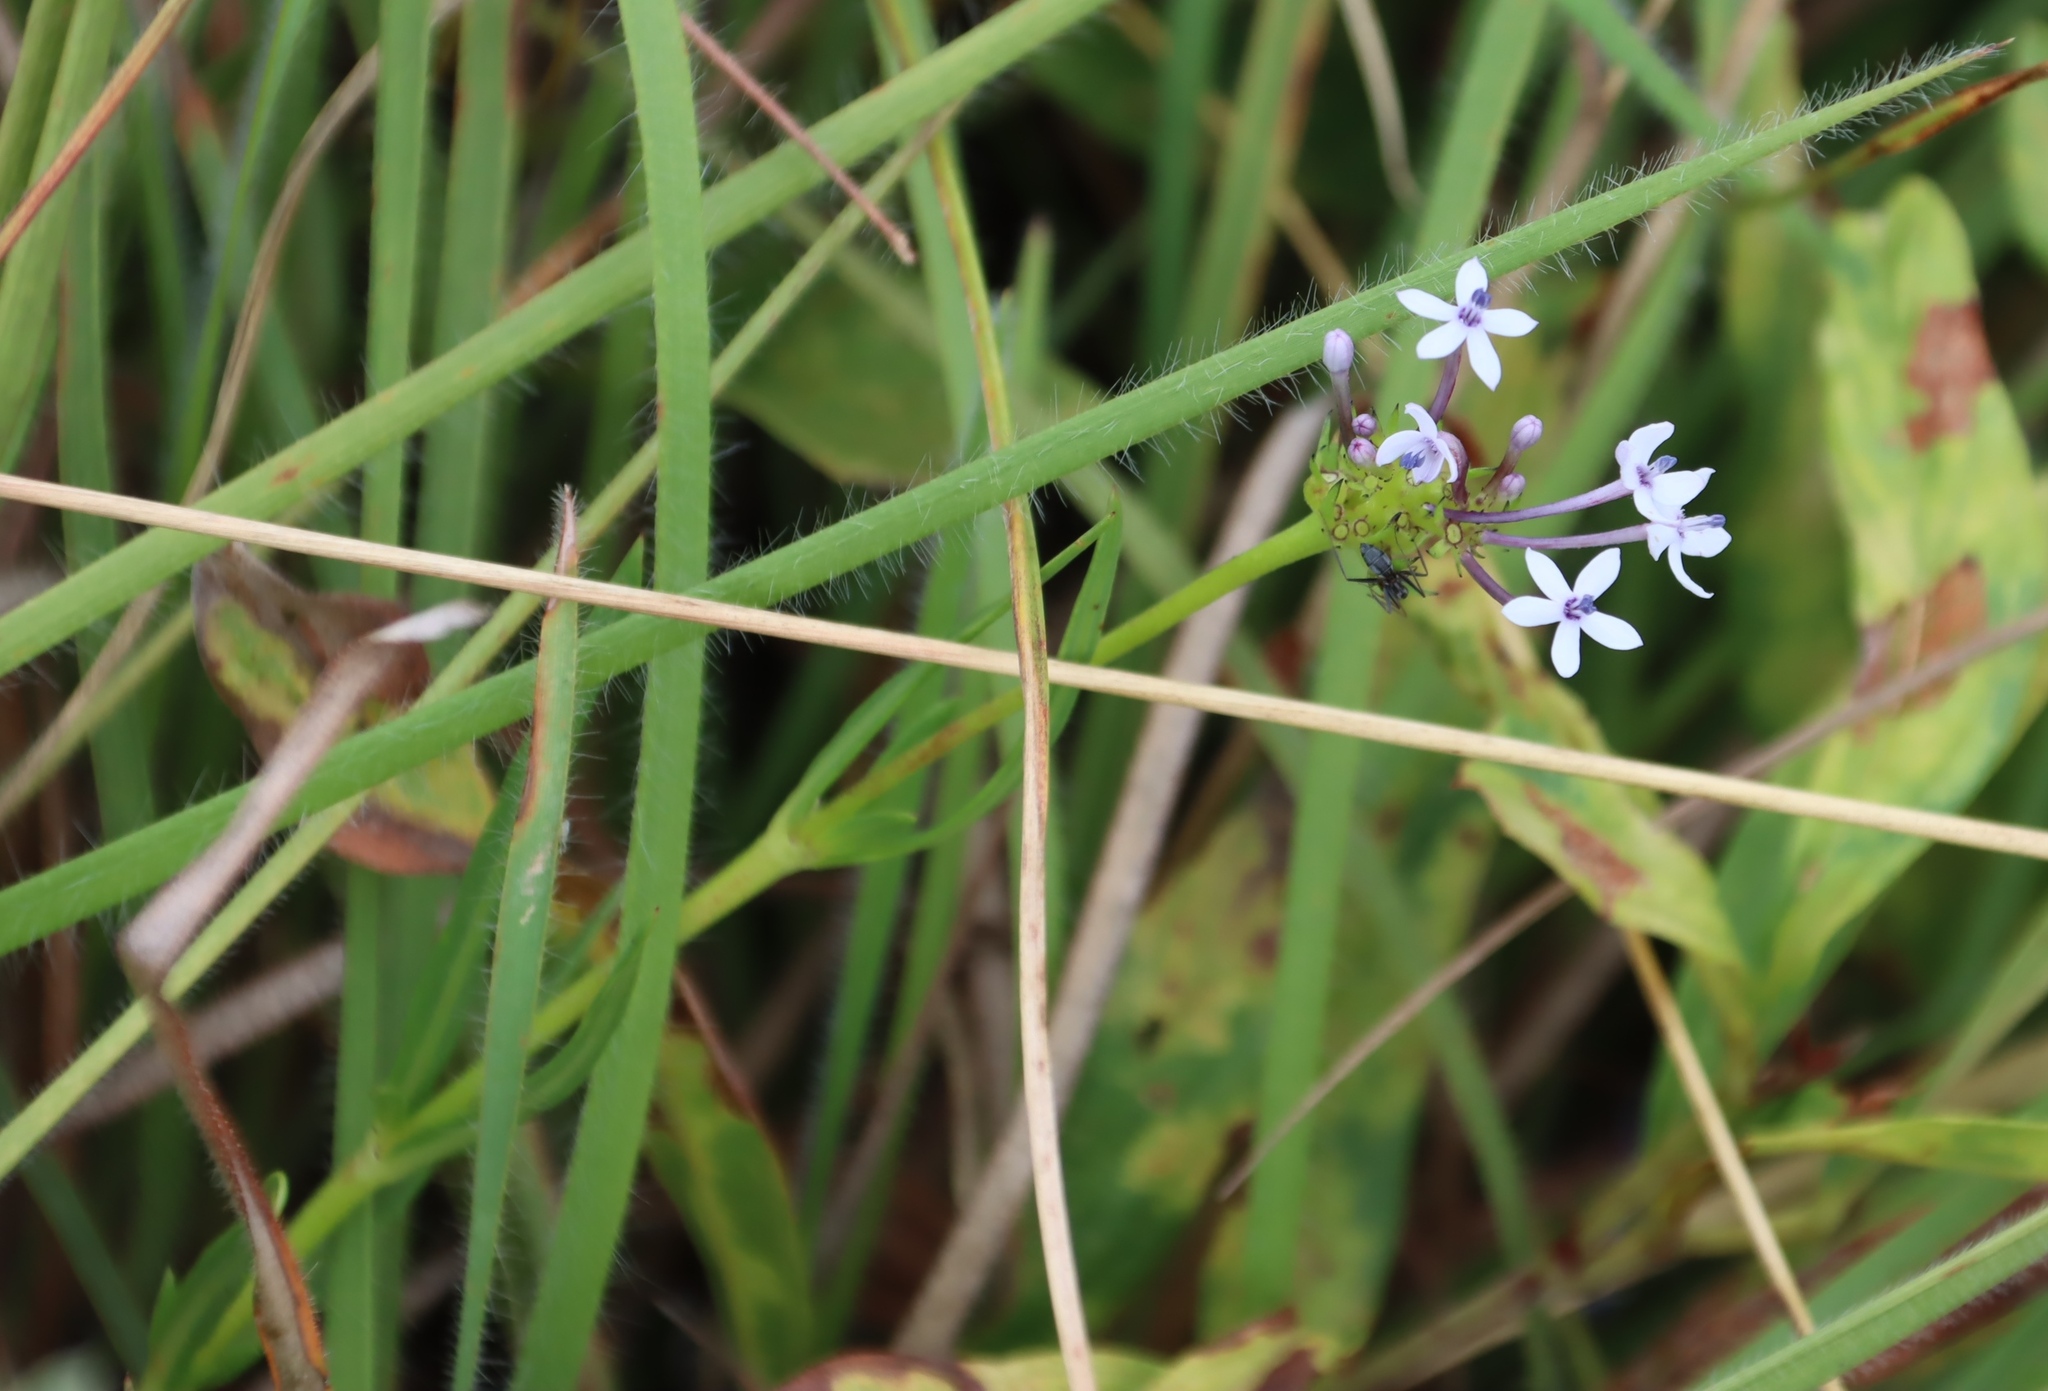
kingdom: Plantae
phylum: Tracheophyta
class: Magnoliopsida
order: Gentianales
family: Rubiaceae
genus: Pentanisia
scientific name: Pentanisia angustifolia
